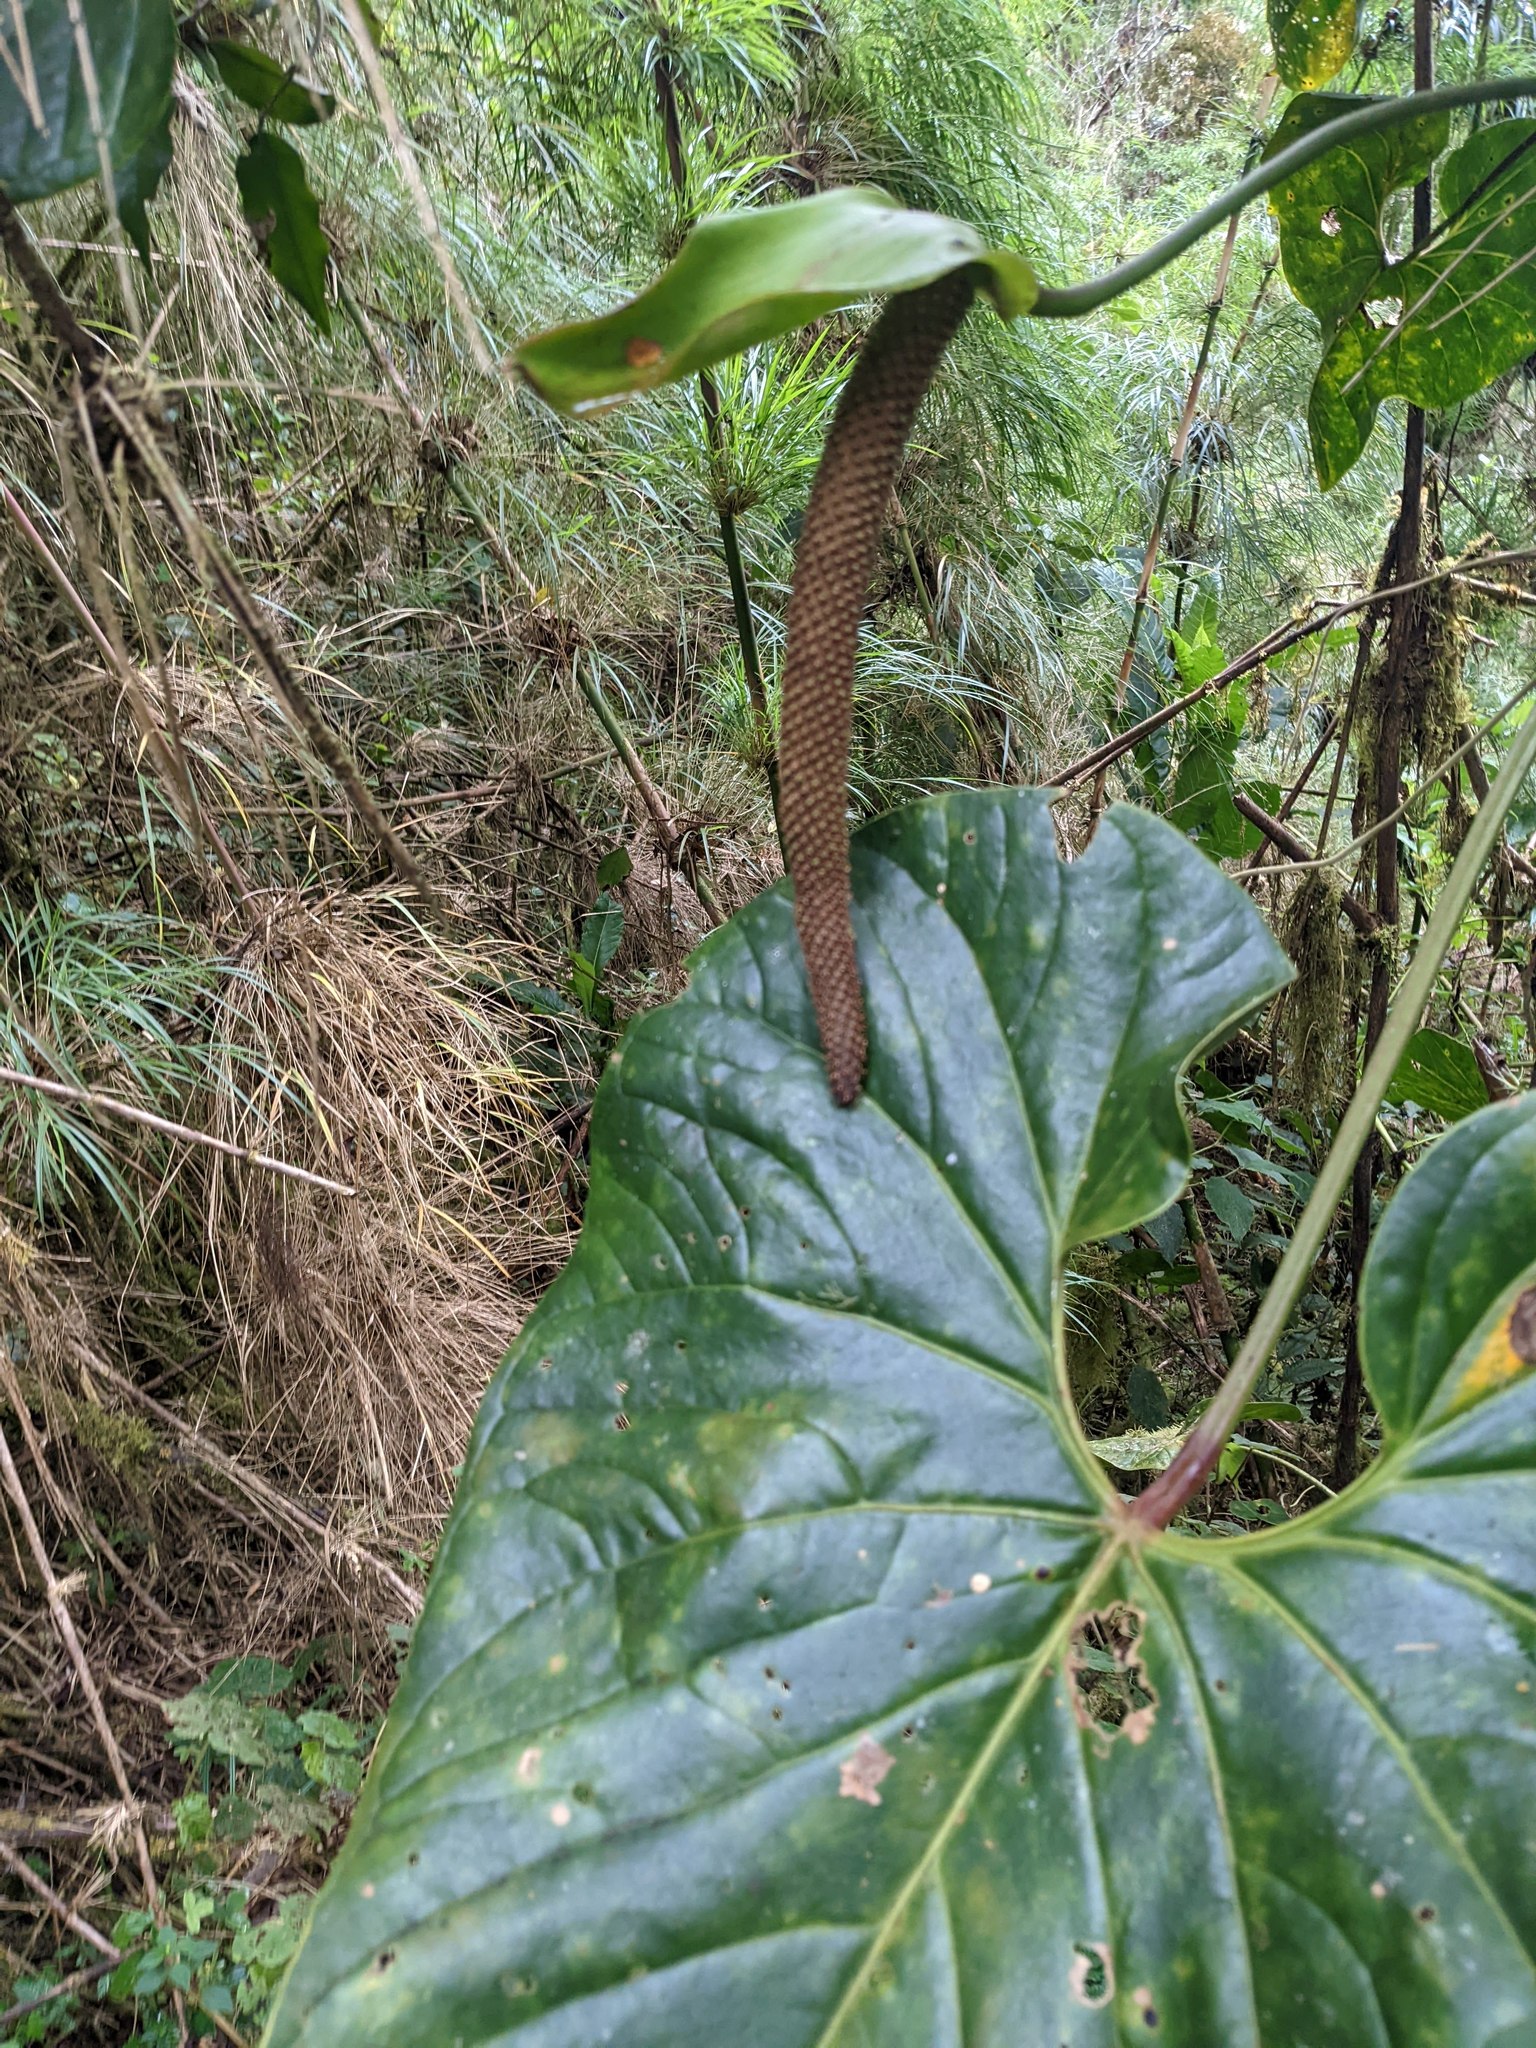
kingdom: Plantae
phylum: Tracheophyta
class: Liliopsida
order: Alismatales
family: Araceae
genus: Anthurium
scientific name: Anthurium concinnatum
